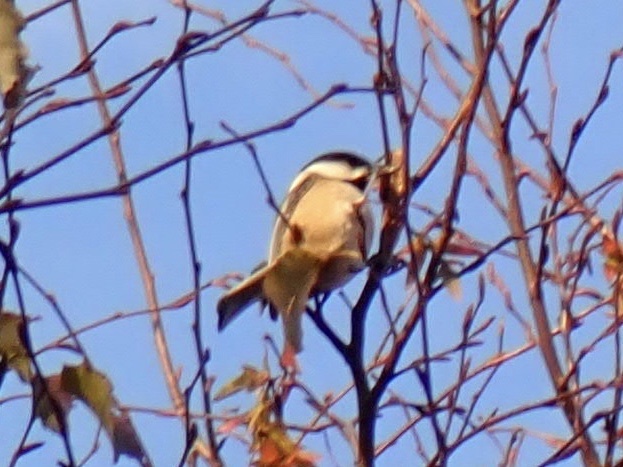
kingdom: Animalia
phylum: Chordata
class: Aves
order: Passeriformes
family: Paridae
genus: Poecile
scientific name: Poecile atricapillus
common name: Black-capped chickadee
